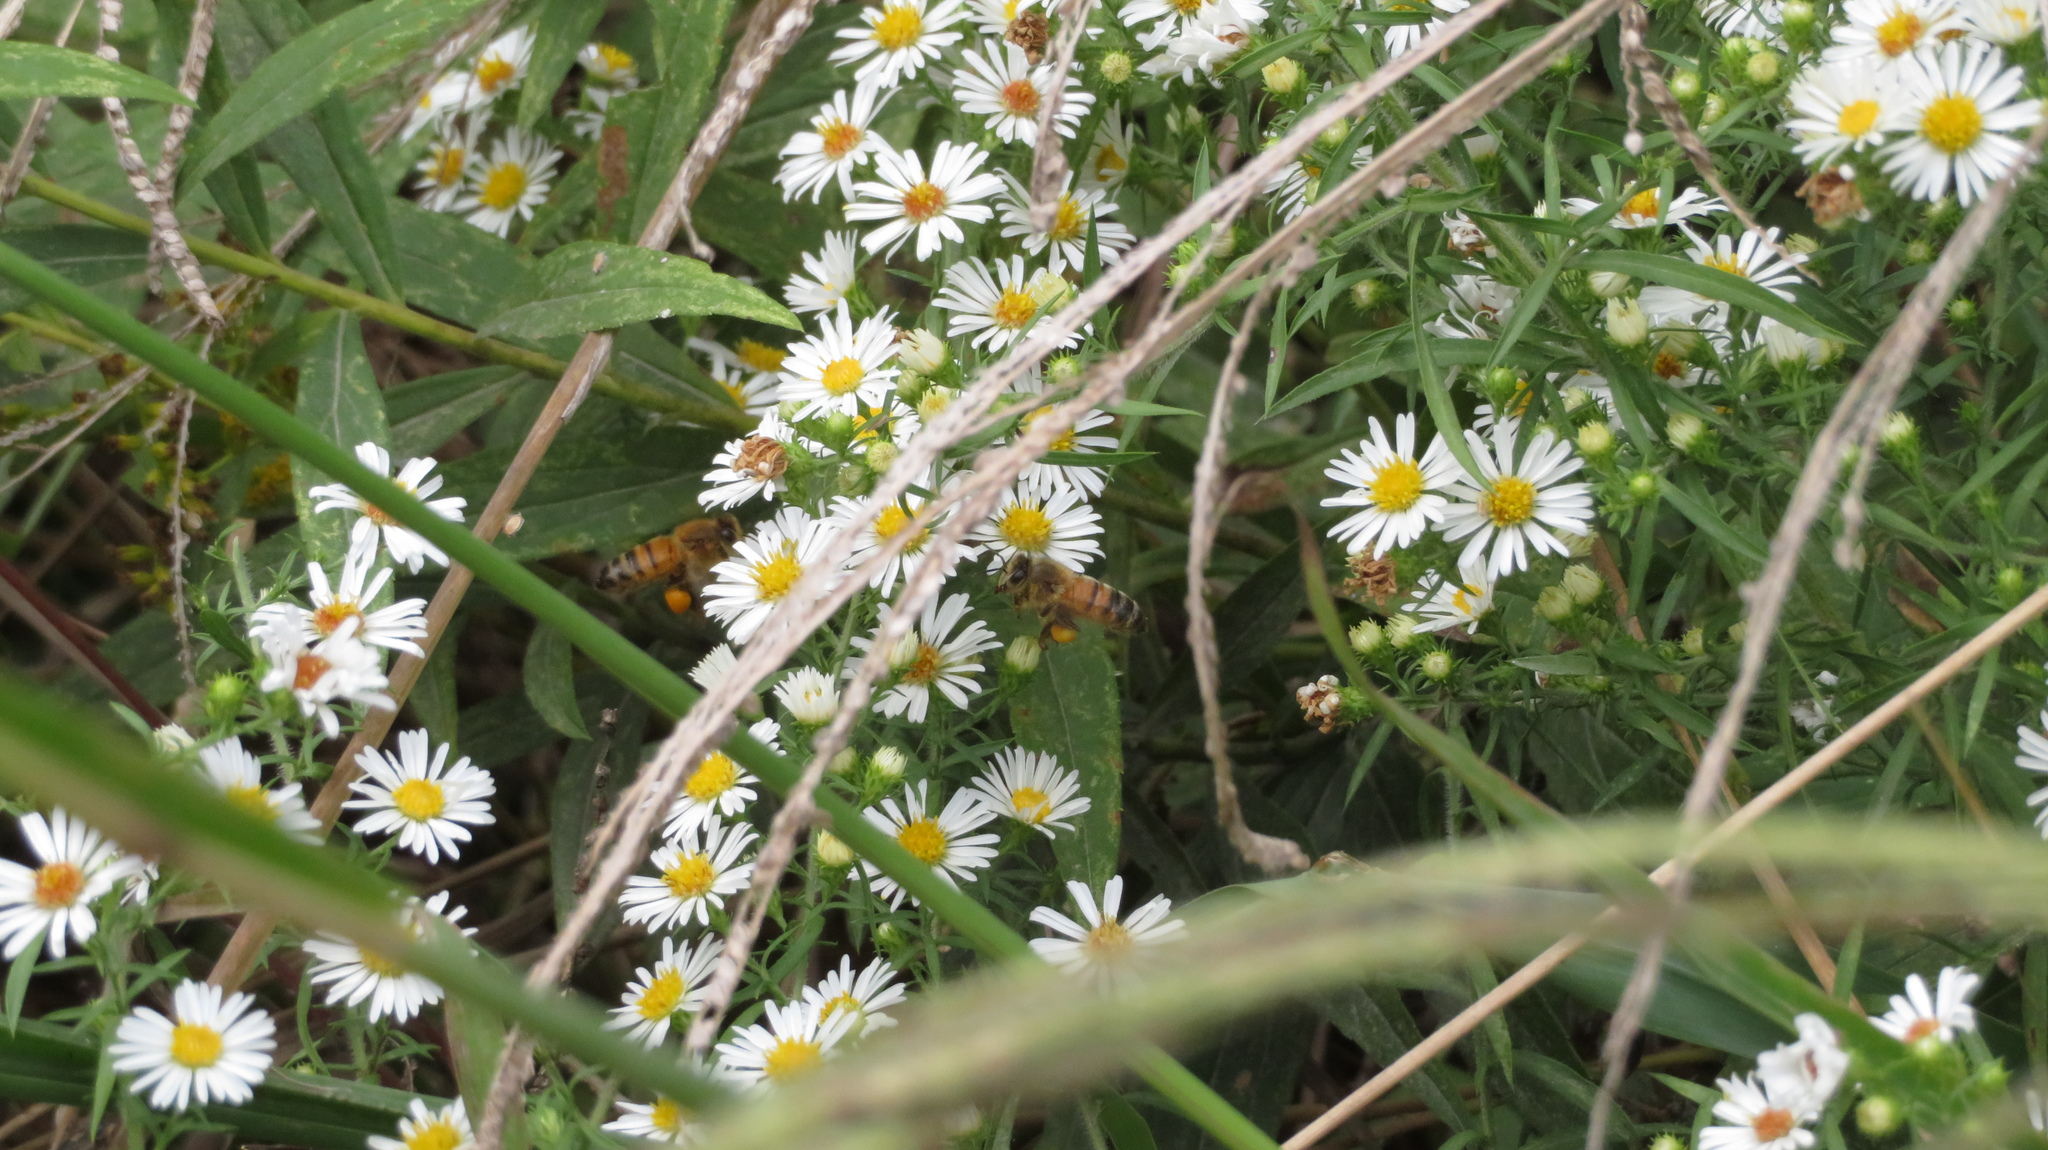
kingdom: Animalia
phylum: Arthropoda
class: Insecta
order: Hymenoptera
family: Apidae
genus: Apis
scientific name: Apis mellifera
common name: Honey bee
